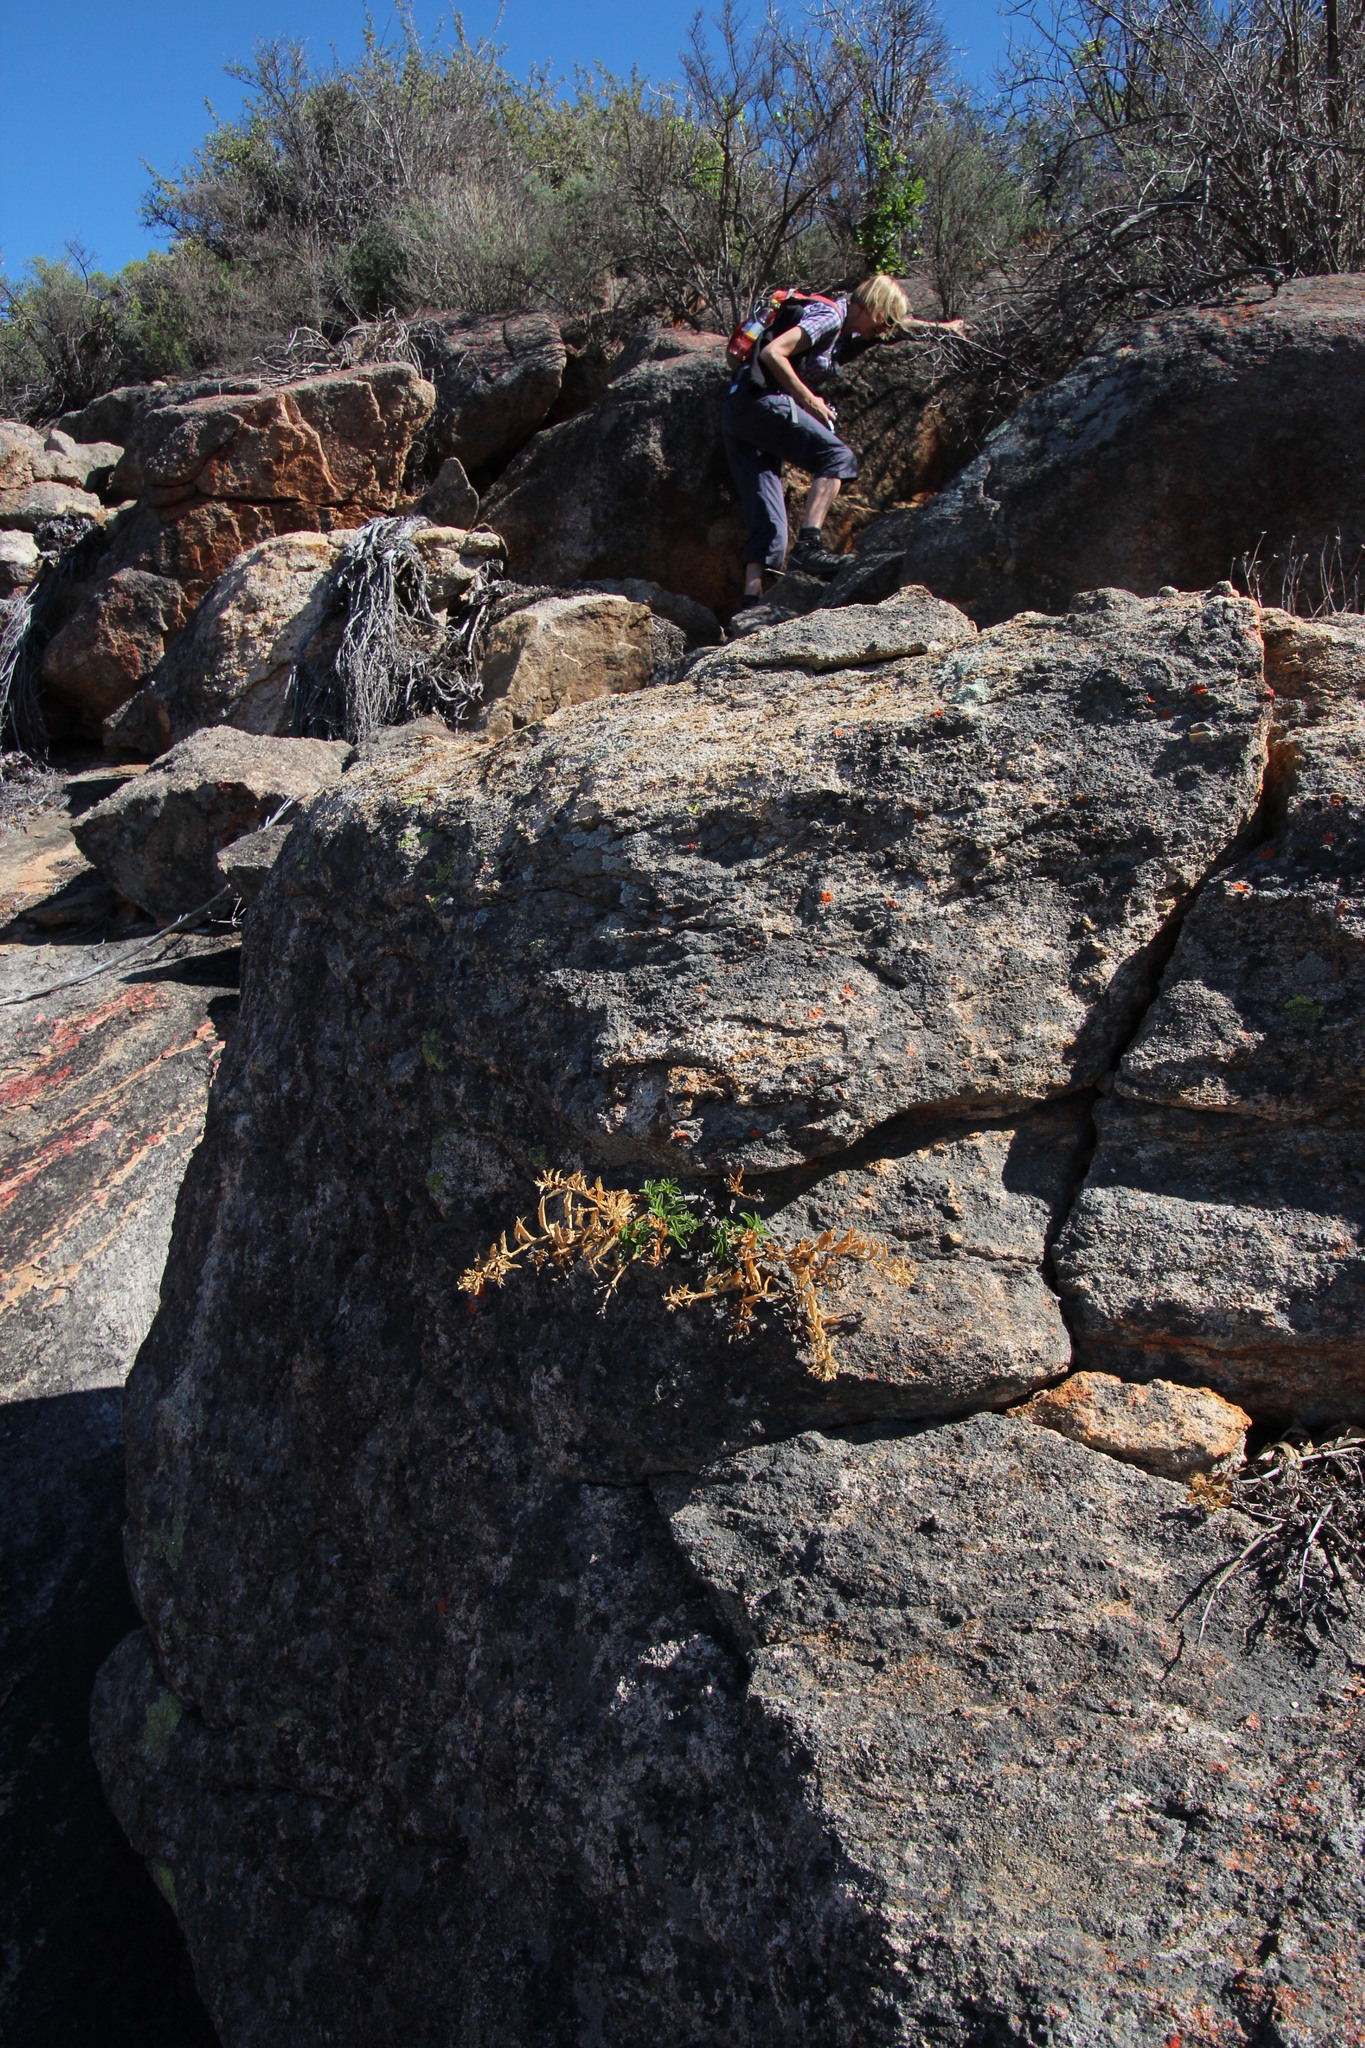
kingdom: Plantae
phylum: Tracheophyta
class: Magnoliopsida
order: Lamiales
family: Scrophulariaceae
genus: Teedia
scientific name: Teedia lucida
